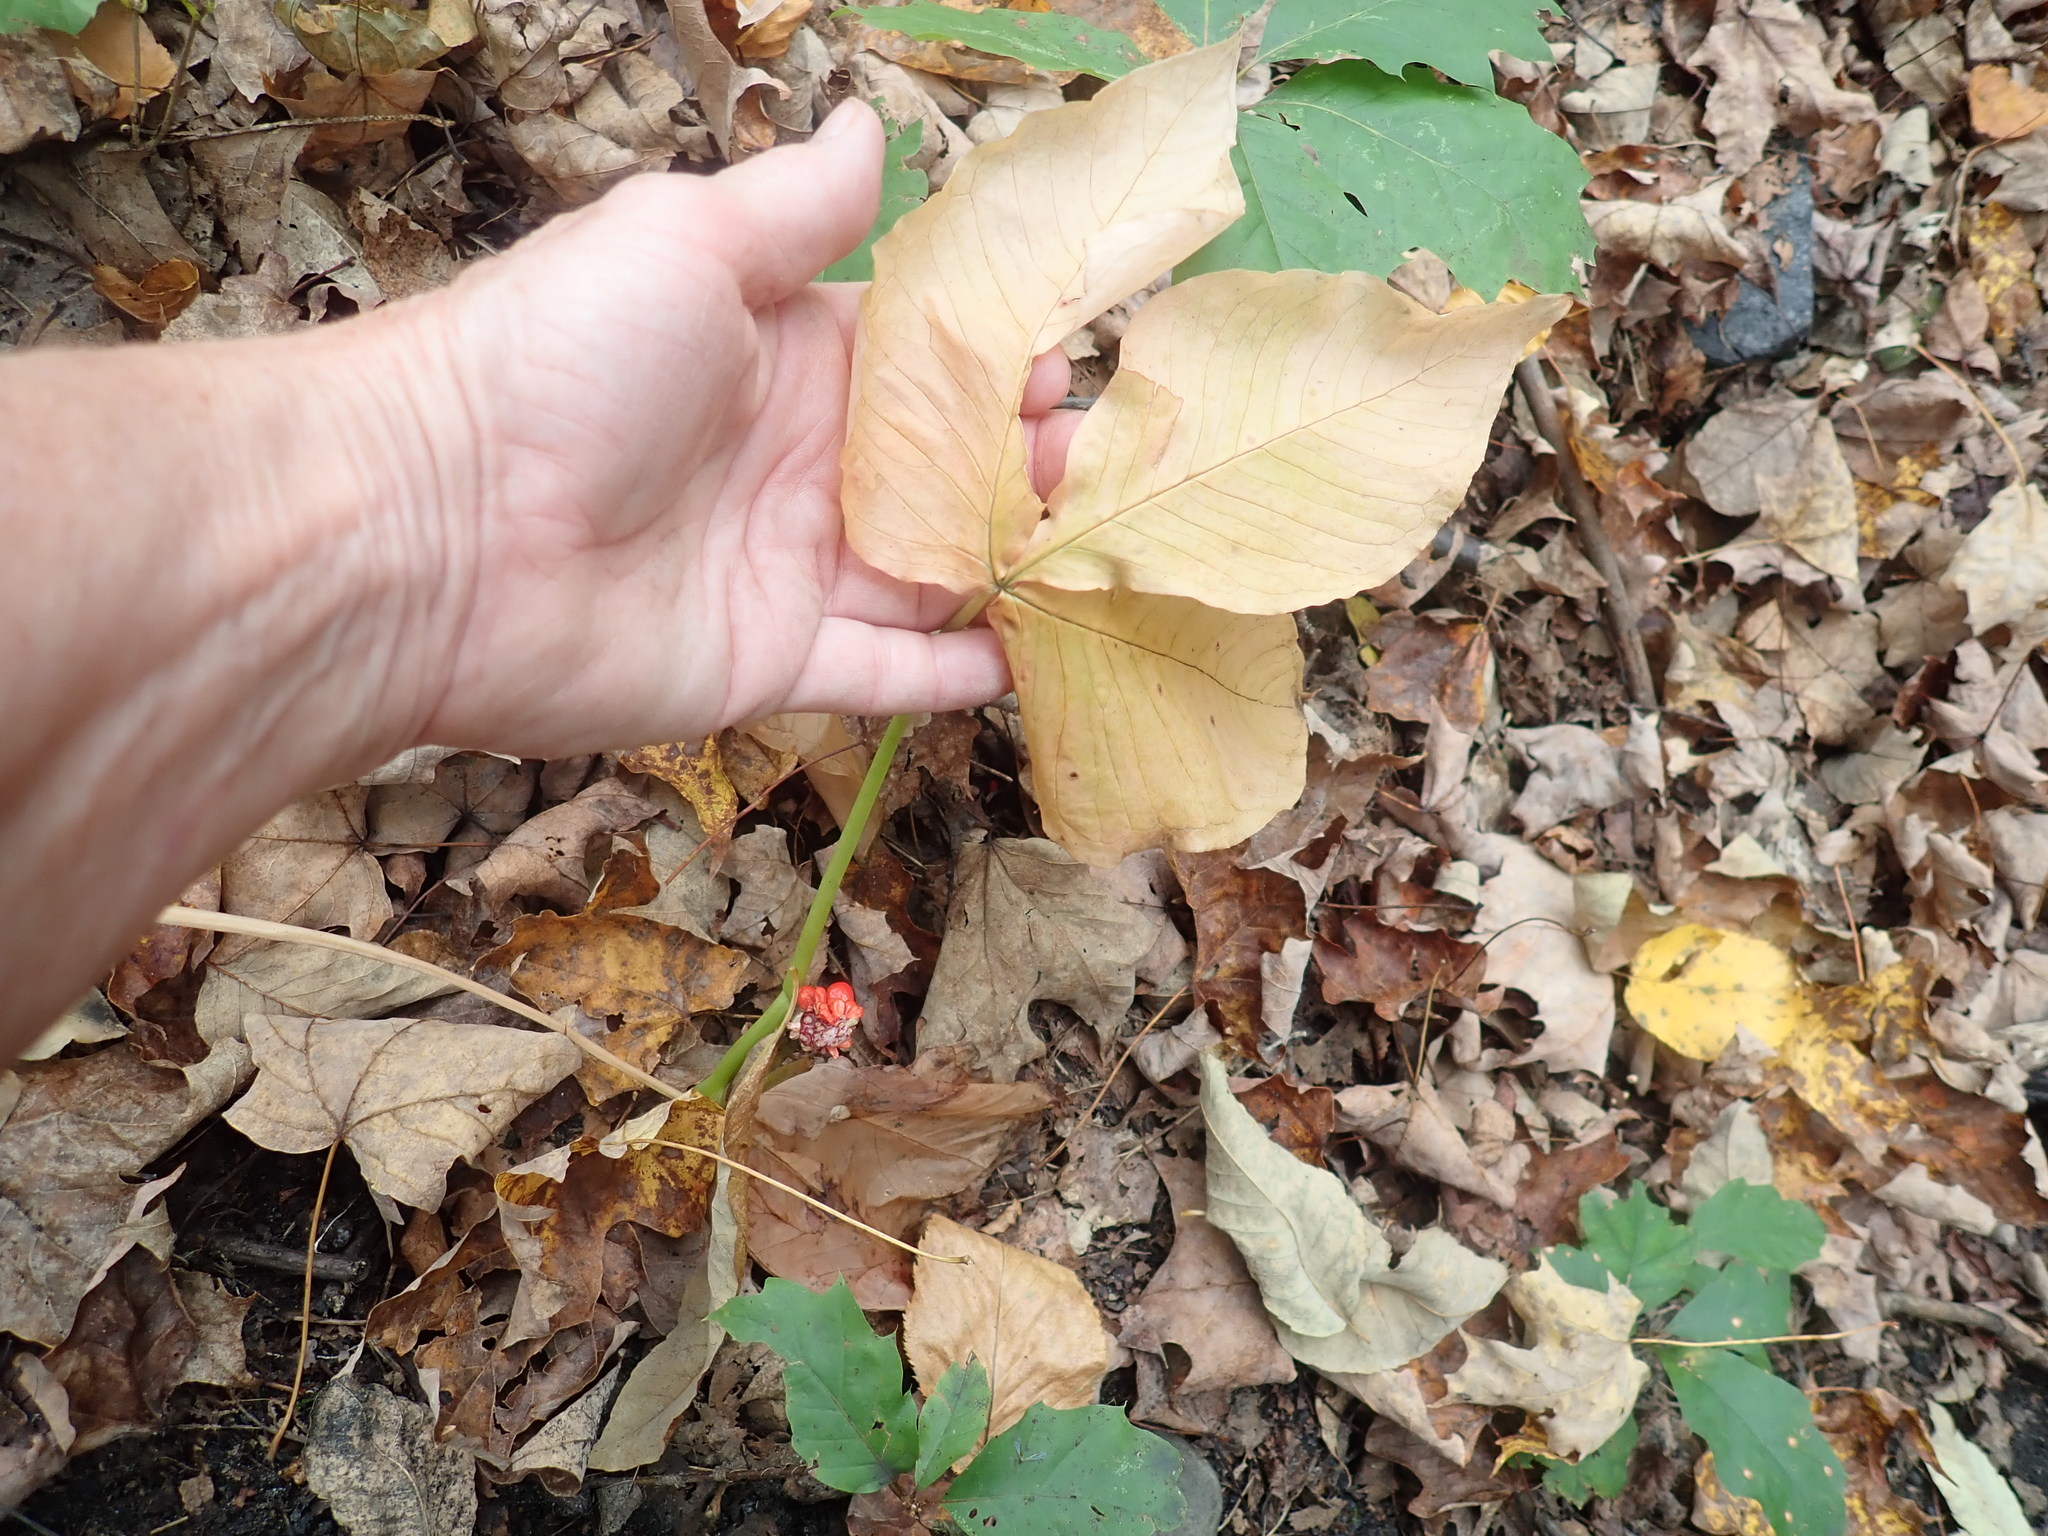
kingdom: Plantae
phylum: Tracheophyta
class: Liliopsida
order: Alismatales
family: Araceae
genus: Arisaema
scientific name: Arisaema triphyllum
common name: Jack-in-the-pulpit
